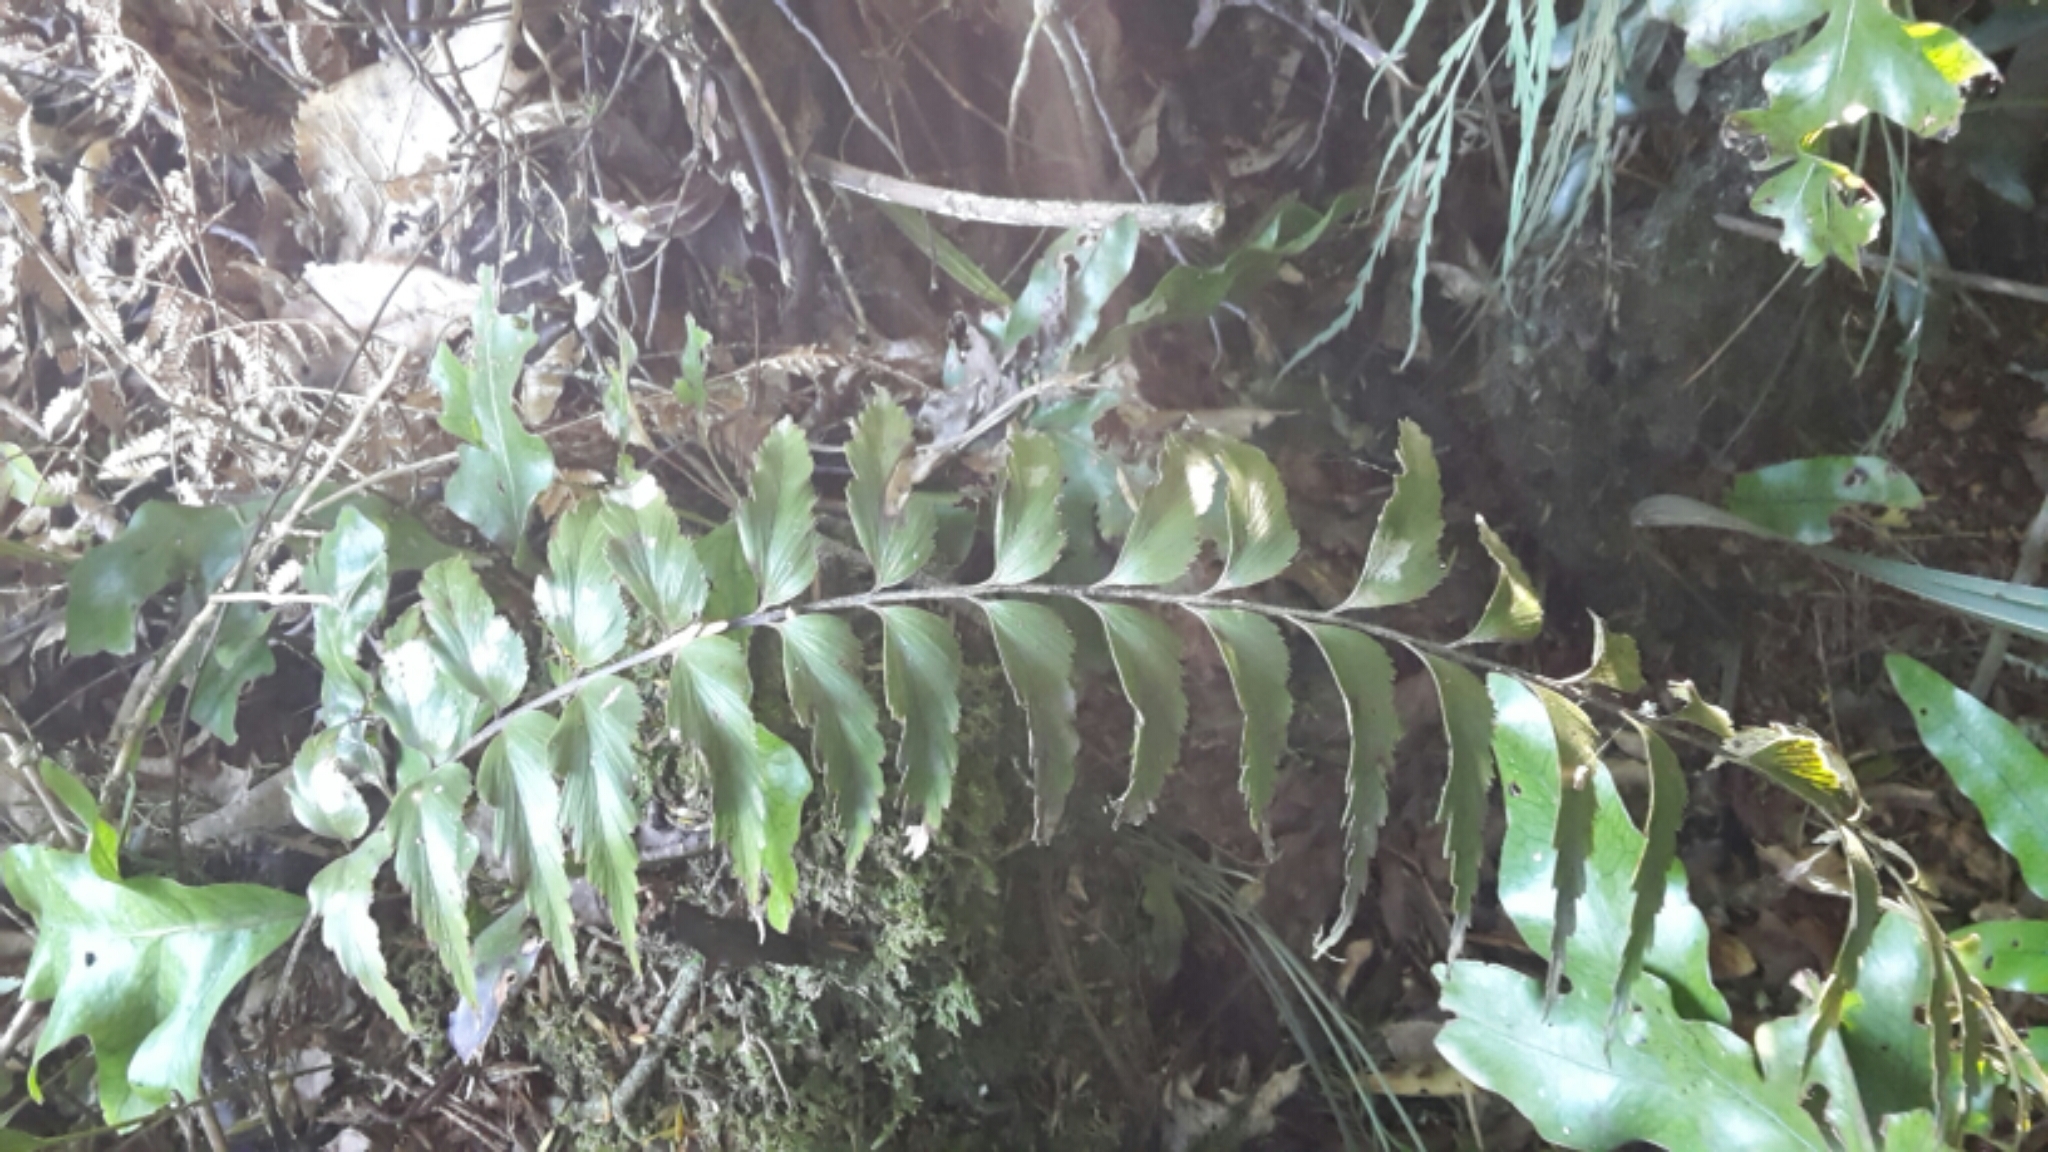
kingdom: Plantae
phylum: Tracheophyta
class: Polypodiopsida
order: Polypodiales
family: Aspleniaceae
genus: Asplenium
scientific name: Asplenium polyodon
